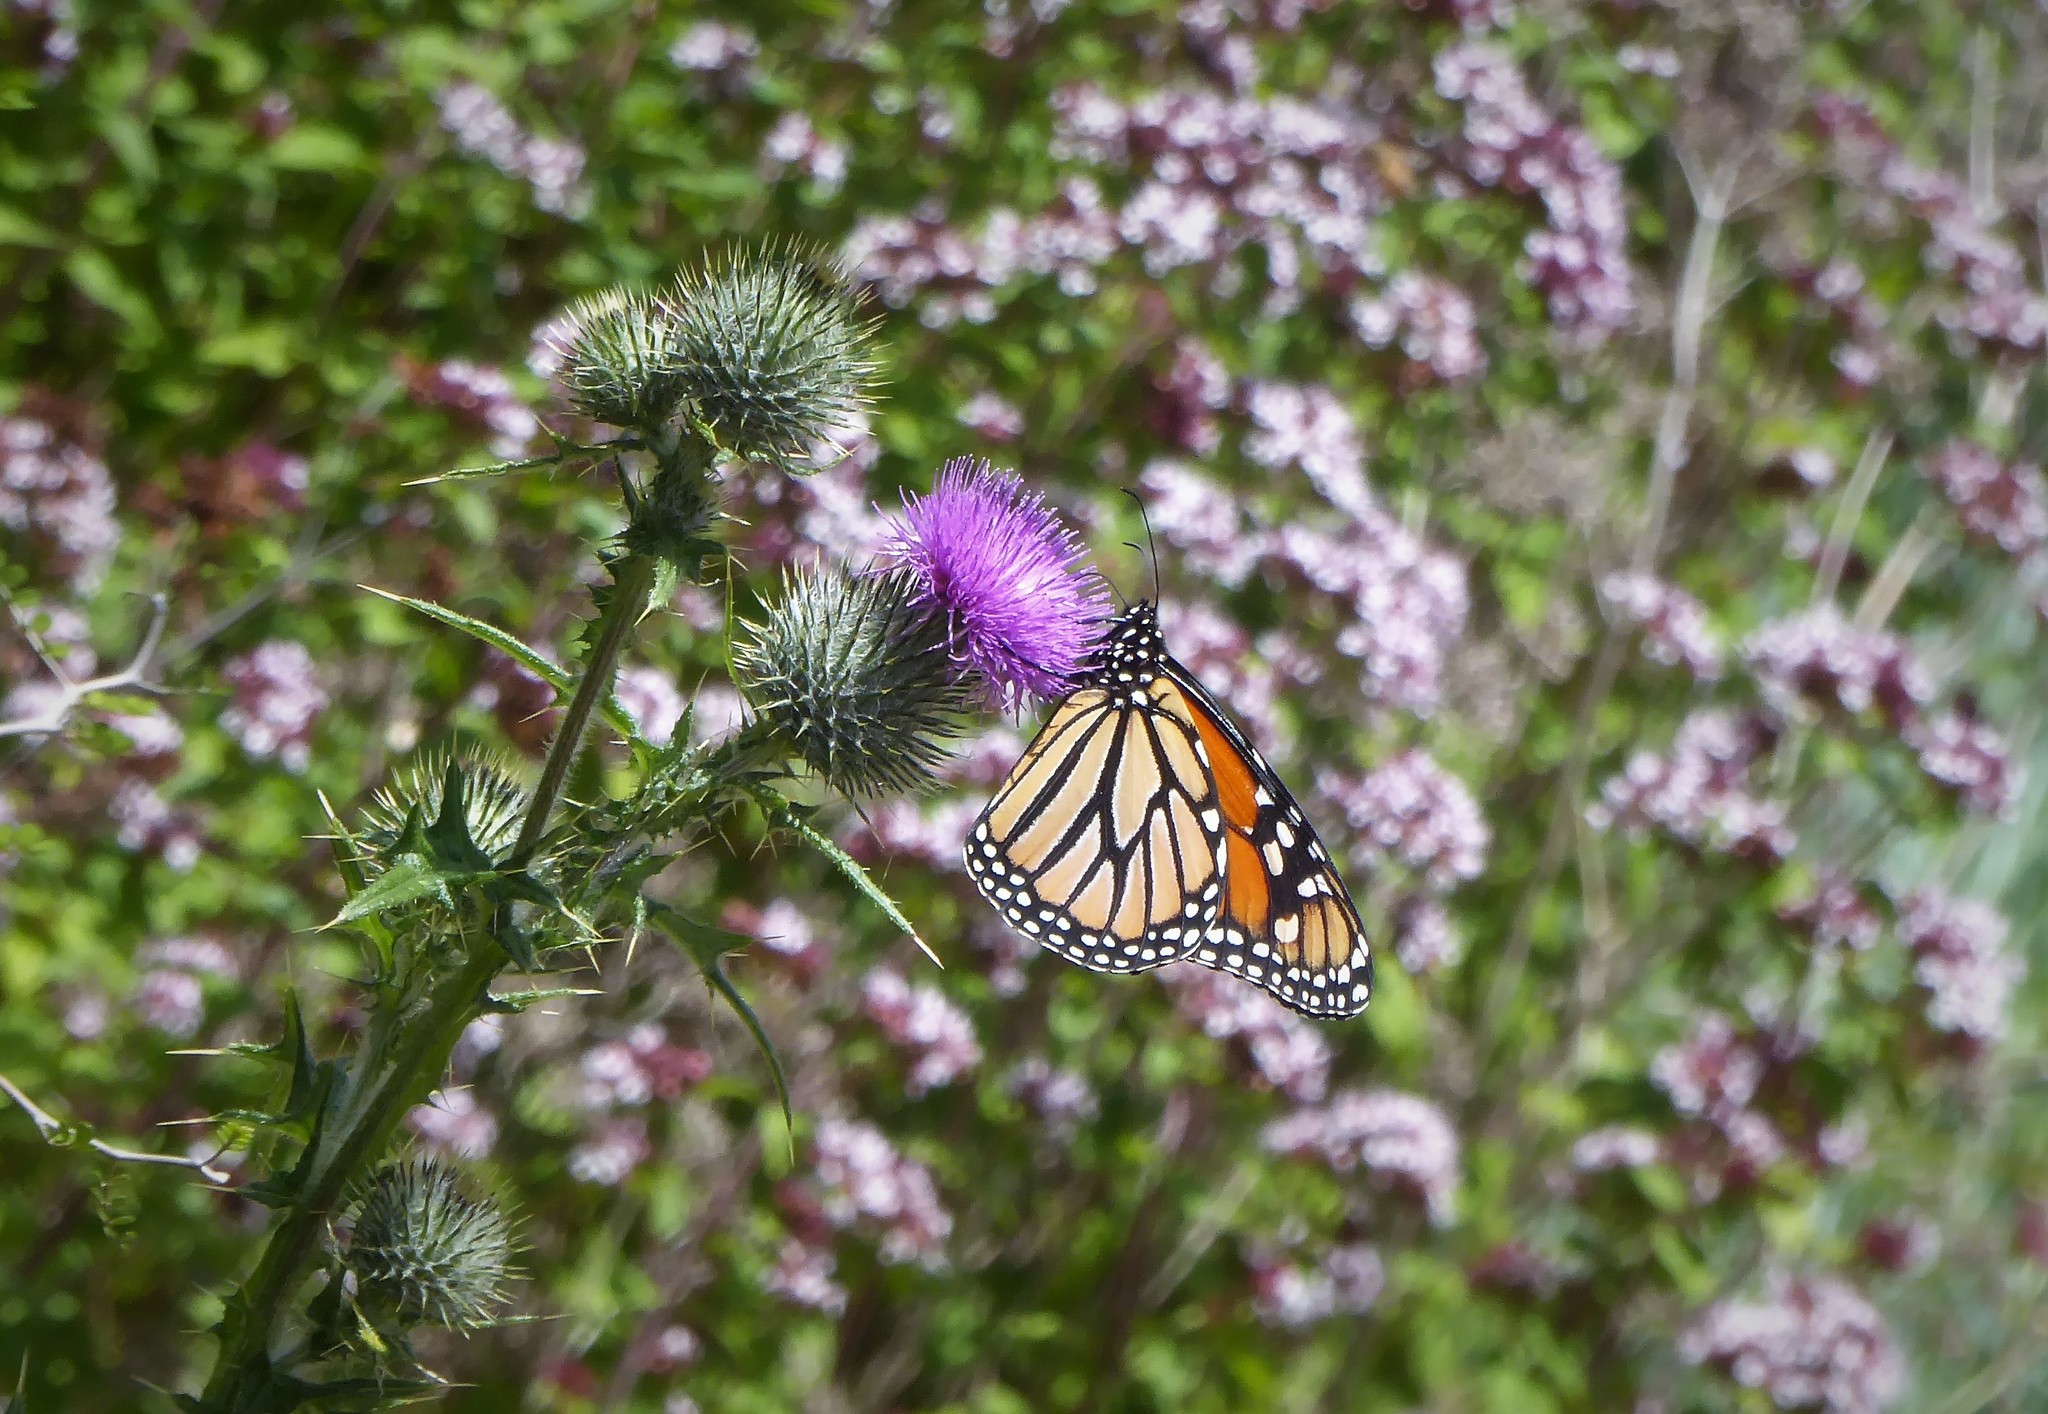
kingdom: Animalia
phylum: Arthropoda
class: Insecta
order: Lepidoptera
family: Nymphalidae
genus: Danaus
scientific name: Danaus plexippus
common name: Monarch
